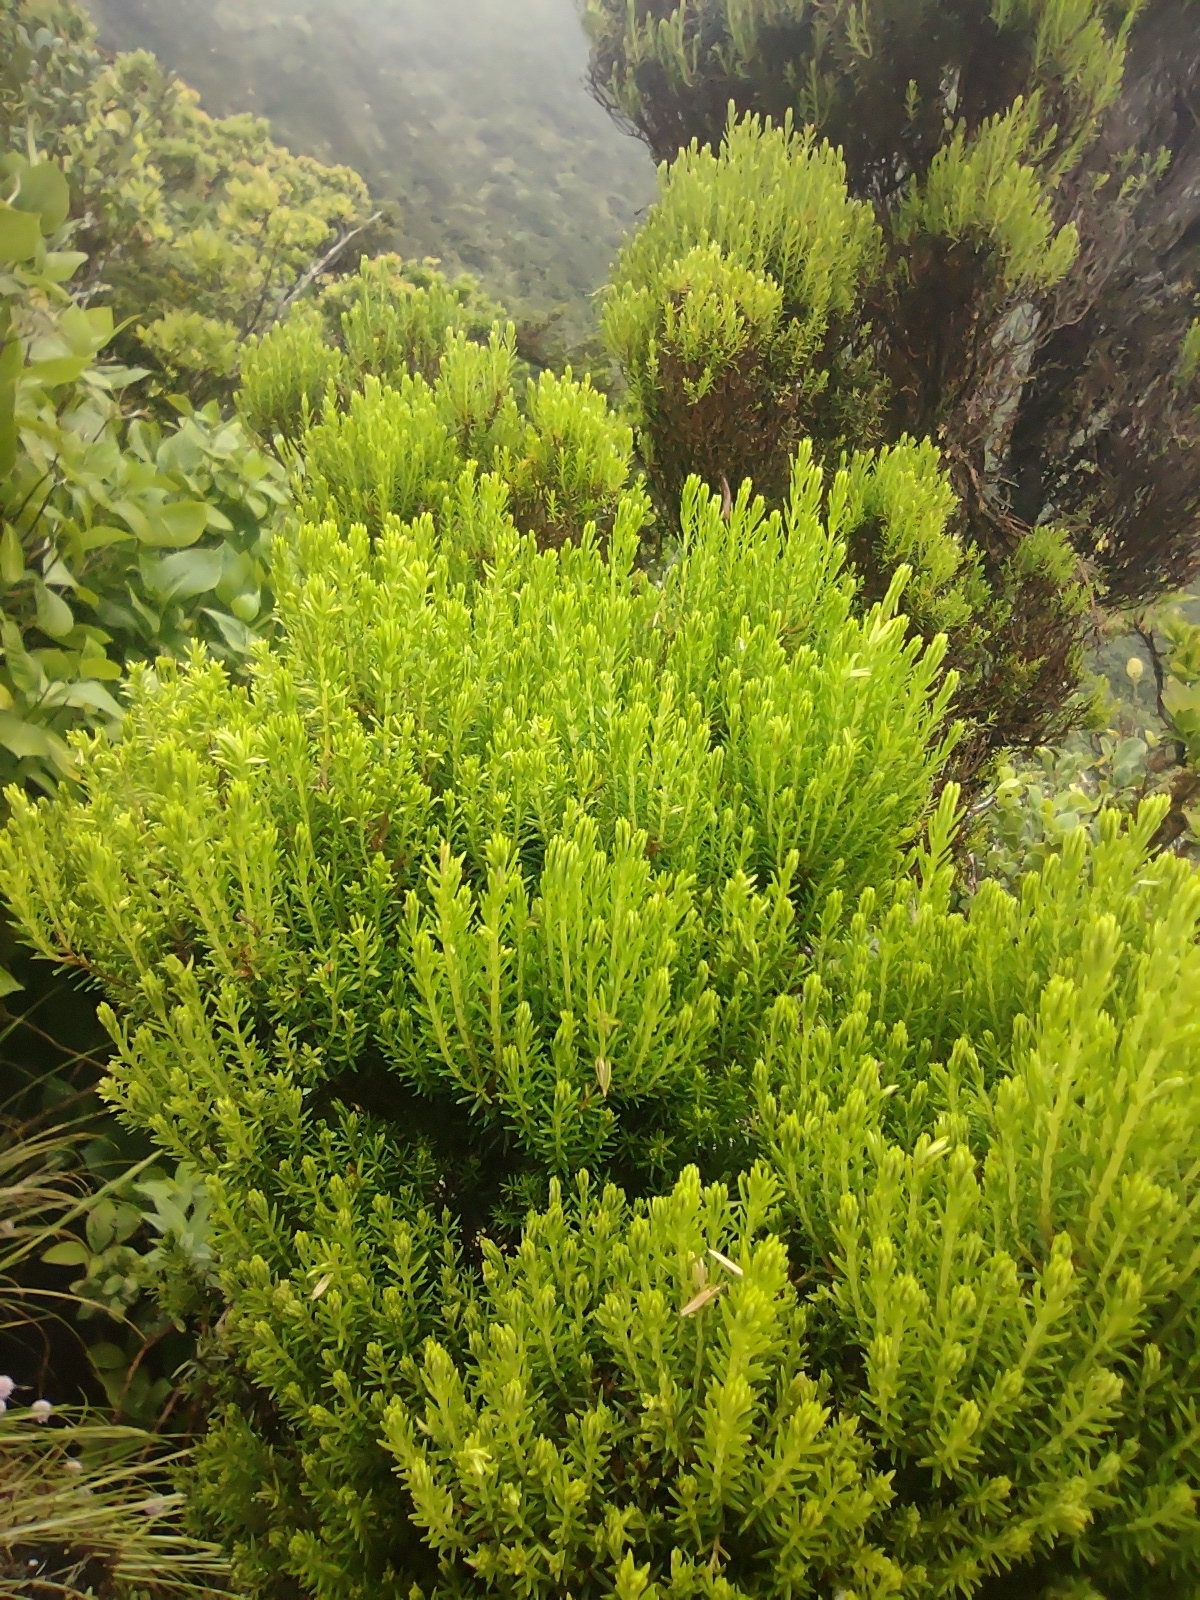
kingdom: Plantae
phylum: Tracheophyta
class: Magnoliopsida
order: Ericales
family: Ericaceae
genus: Erica
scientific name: Erica azorica
